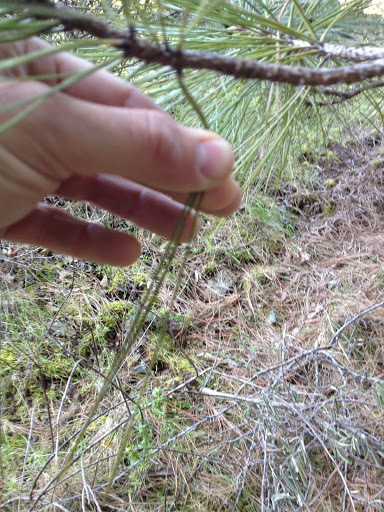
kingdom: Plantae
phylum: Tracheophyta
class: Pinopsida
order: Pinales
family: Pinaceae
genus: Pinus
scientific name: Pinus sabiniana
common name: Bull pine
